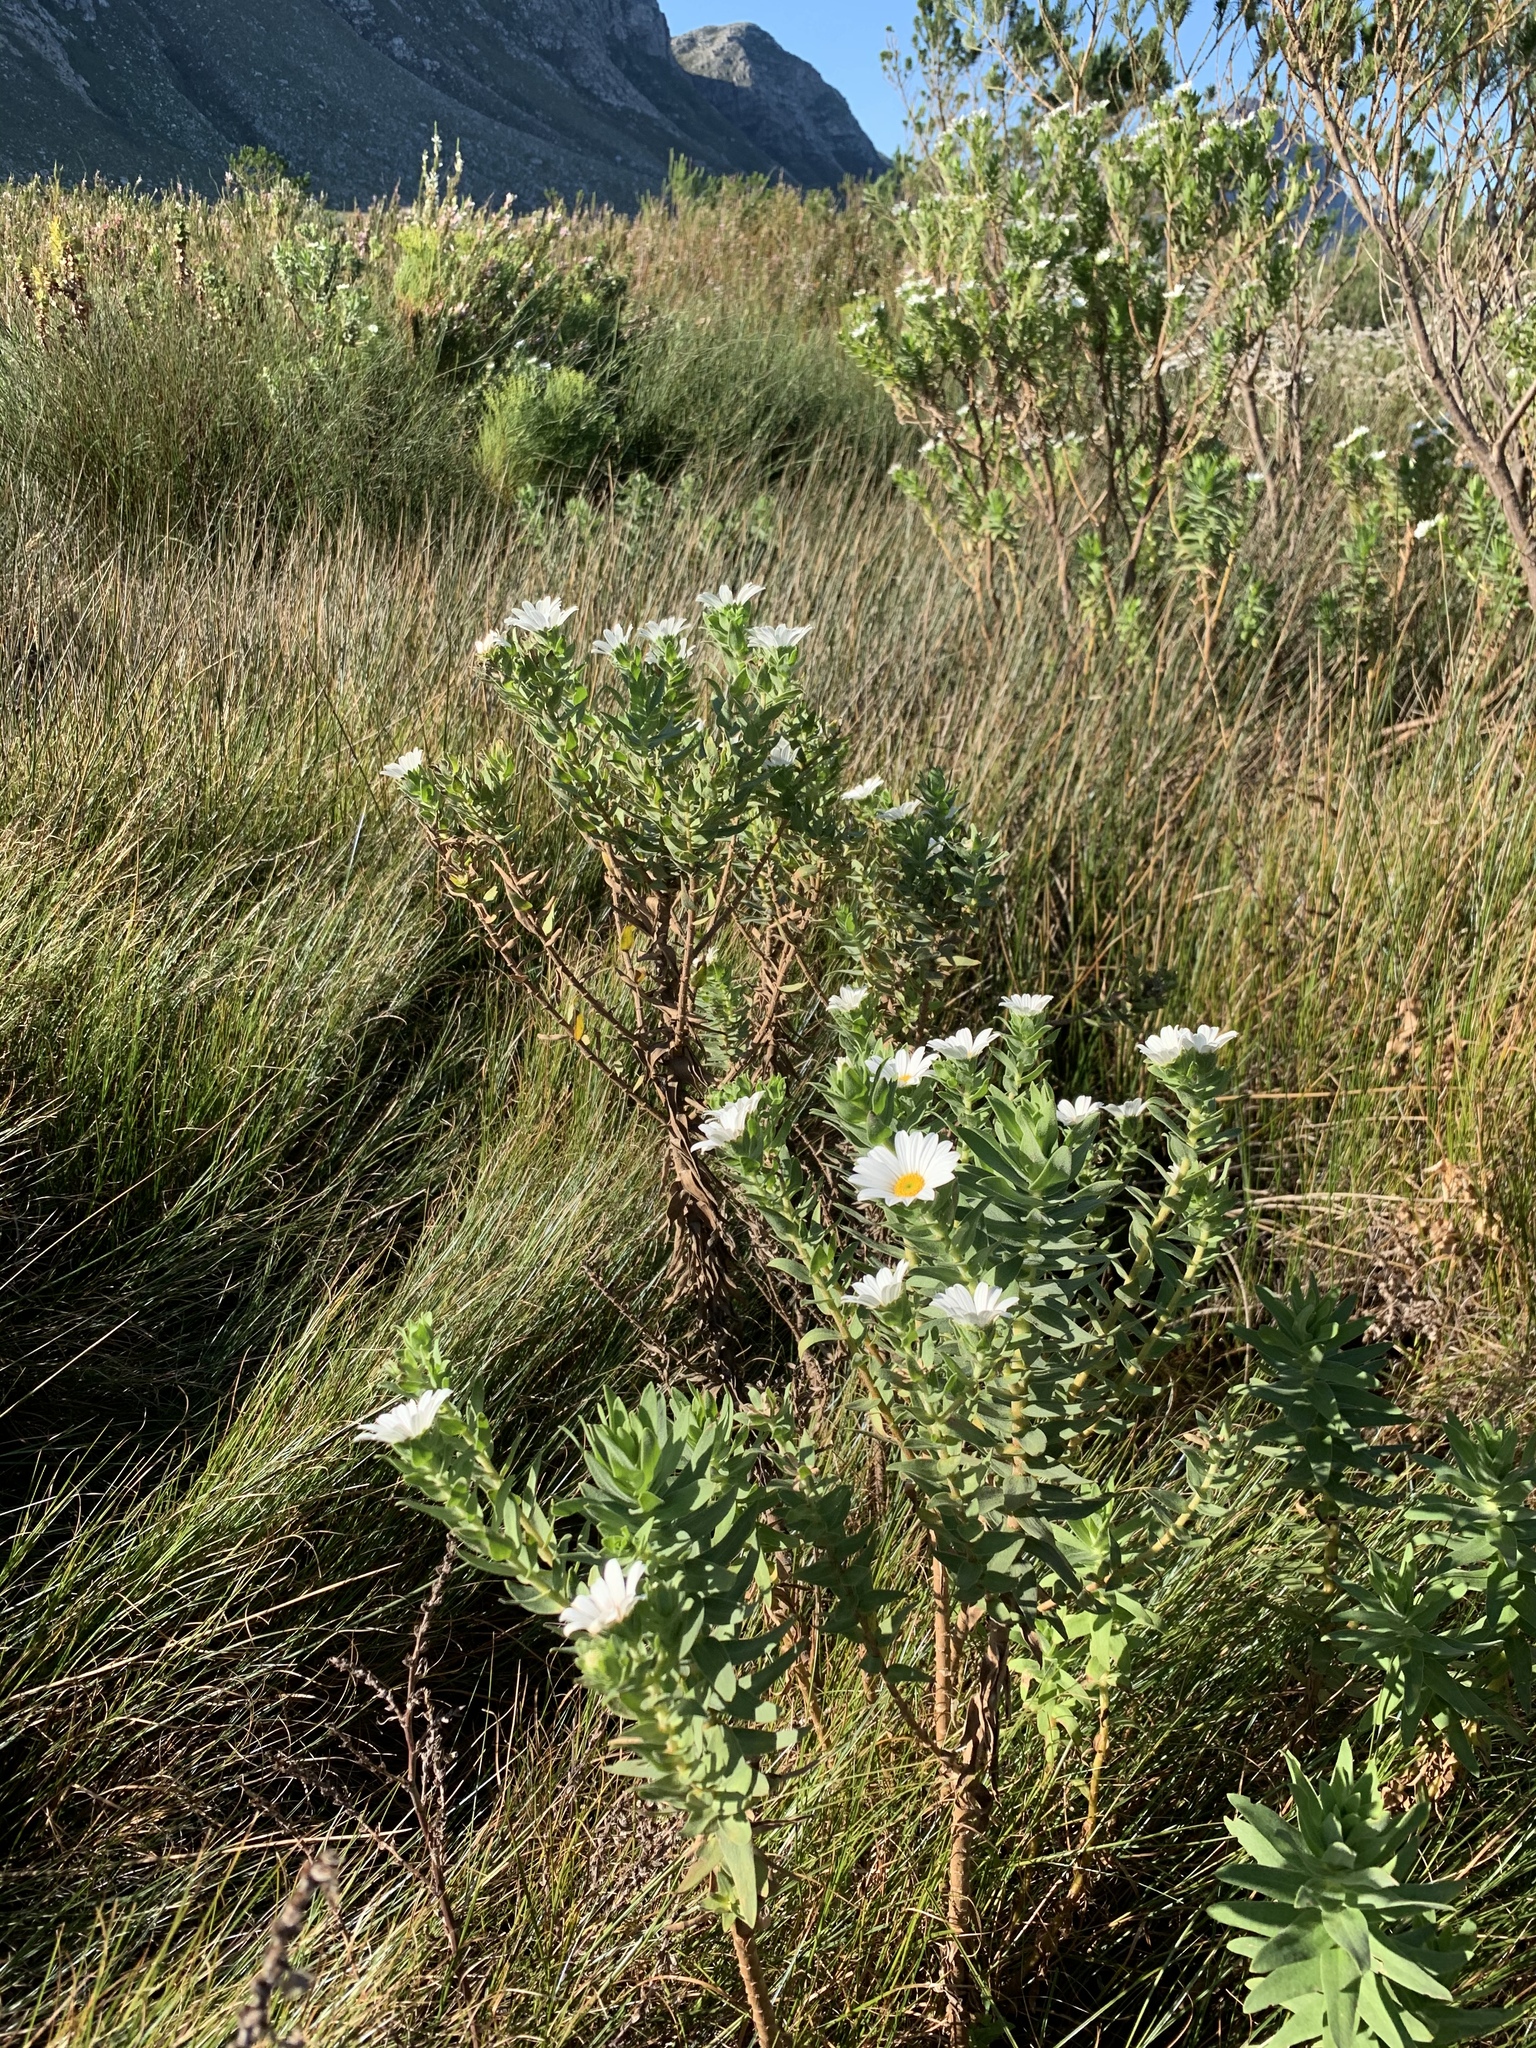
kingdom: Plantae
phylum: Tracheophyta
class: Magnoliopsida
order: Asterales
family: Asteraceae
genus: Osmitopsis
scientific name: Osmitopsis asteriscoides
